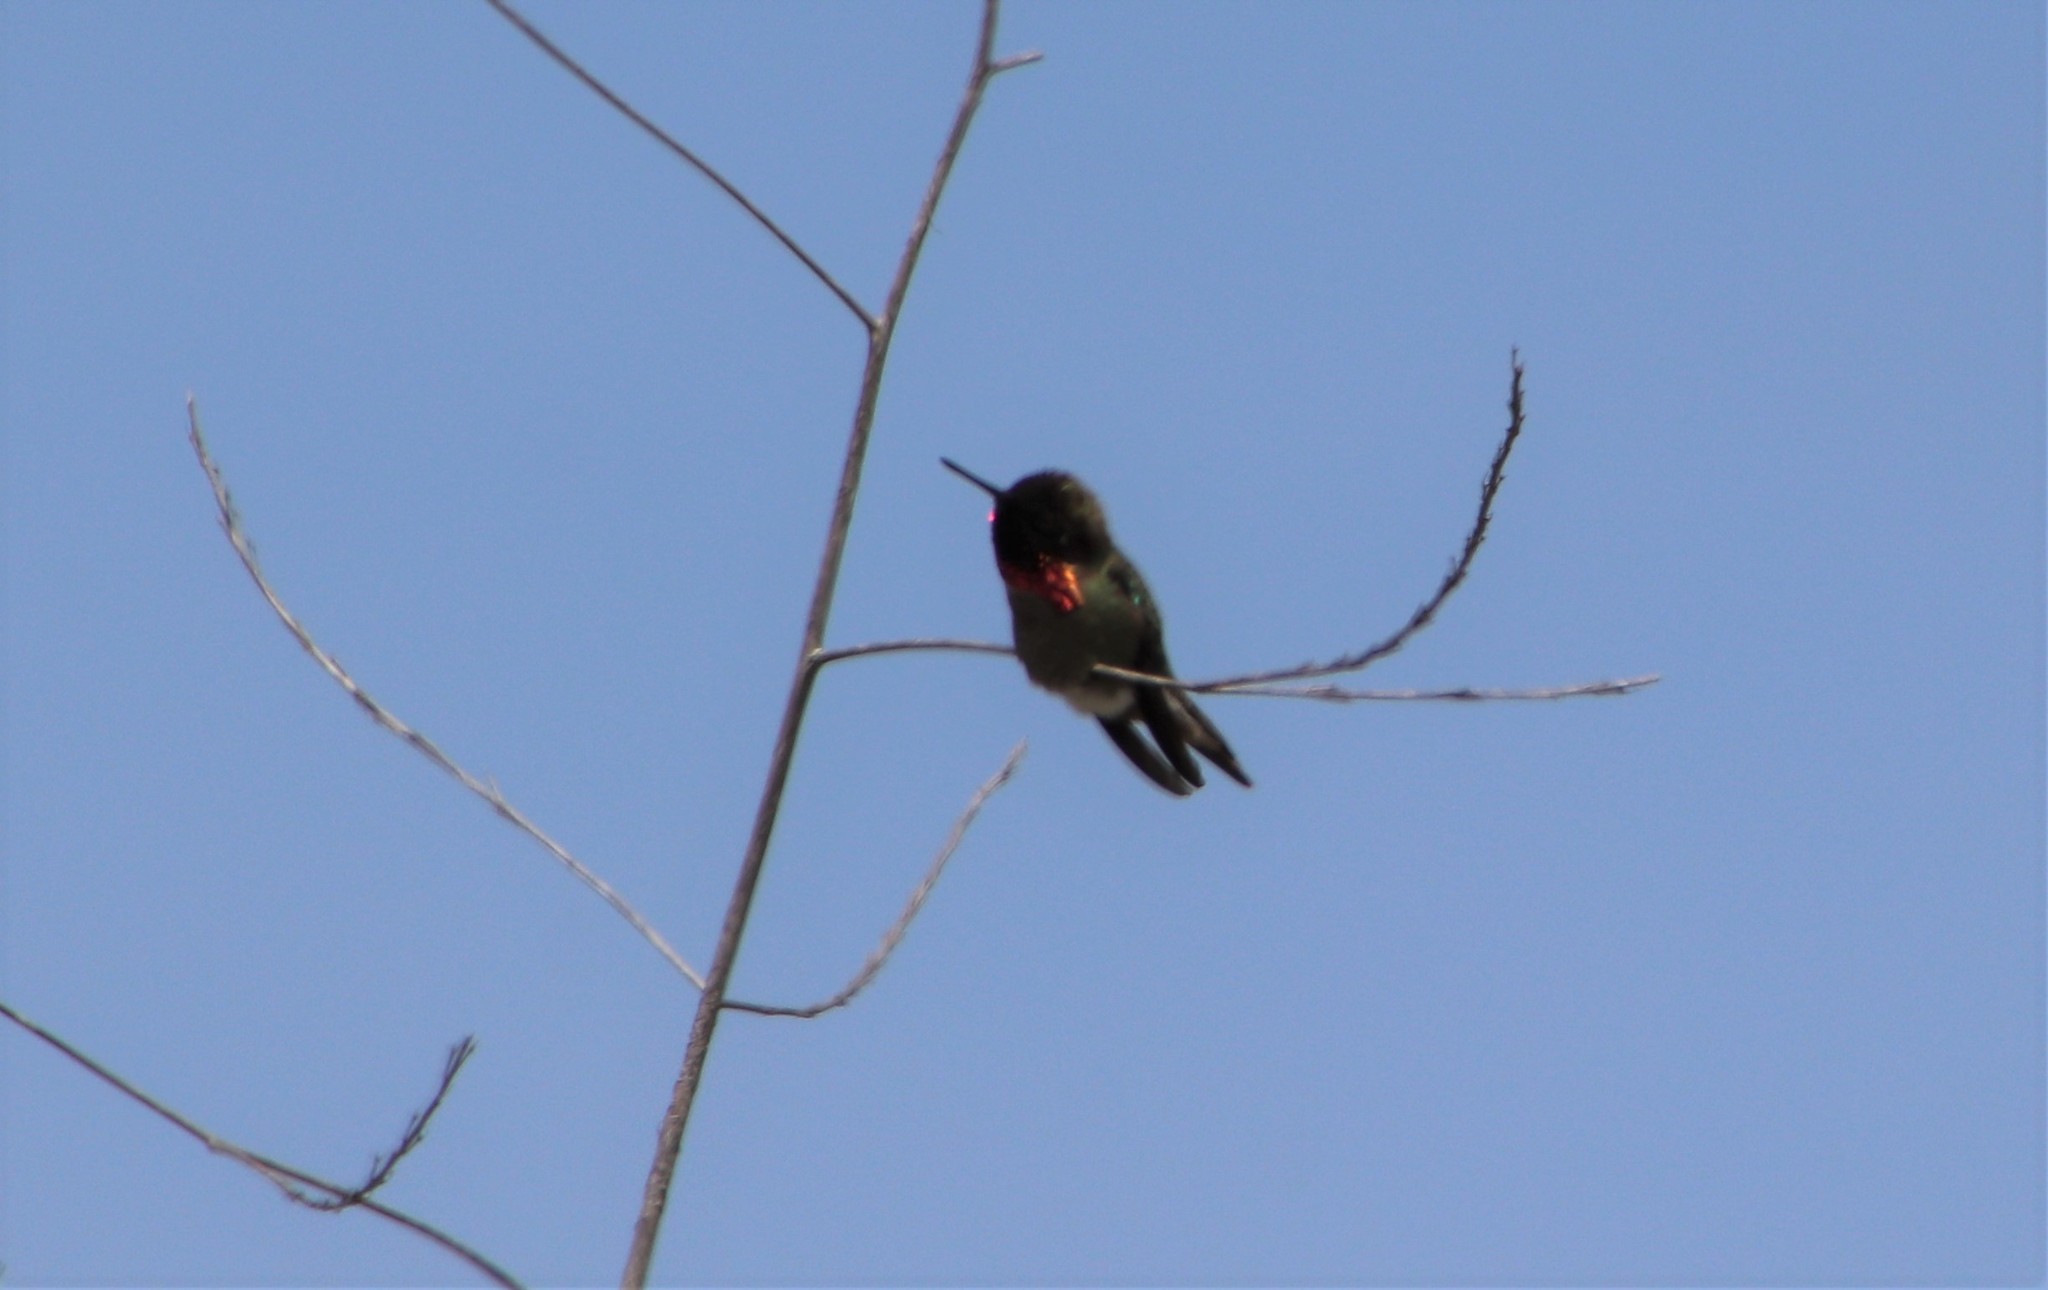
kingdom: Animalia
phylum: Chordata
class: Aves
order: Apodiformes
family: Trochilidae
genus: Calypte
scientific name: Calypte anna
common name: Anna's hummingbird
